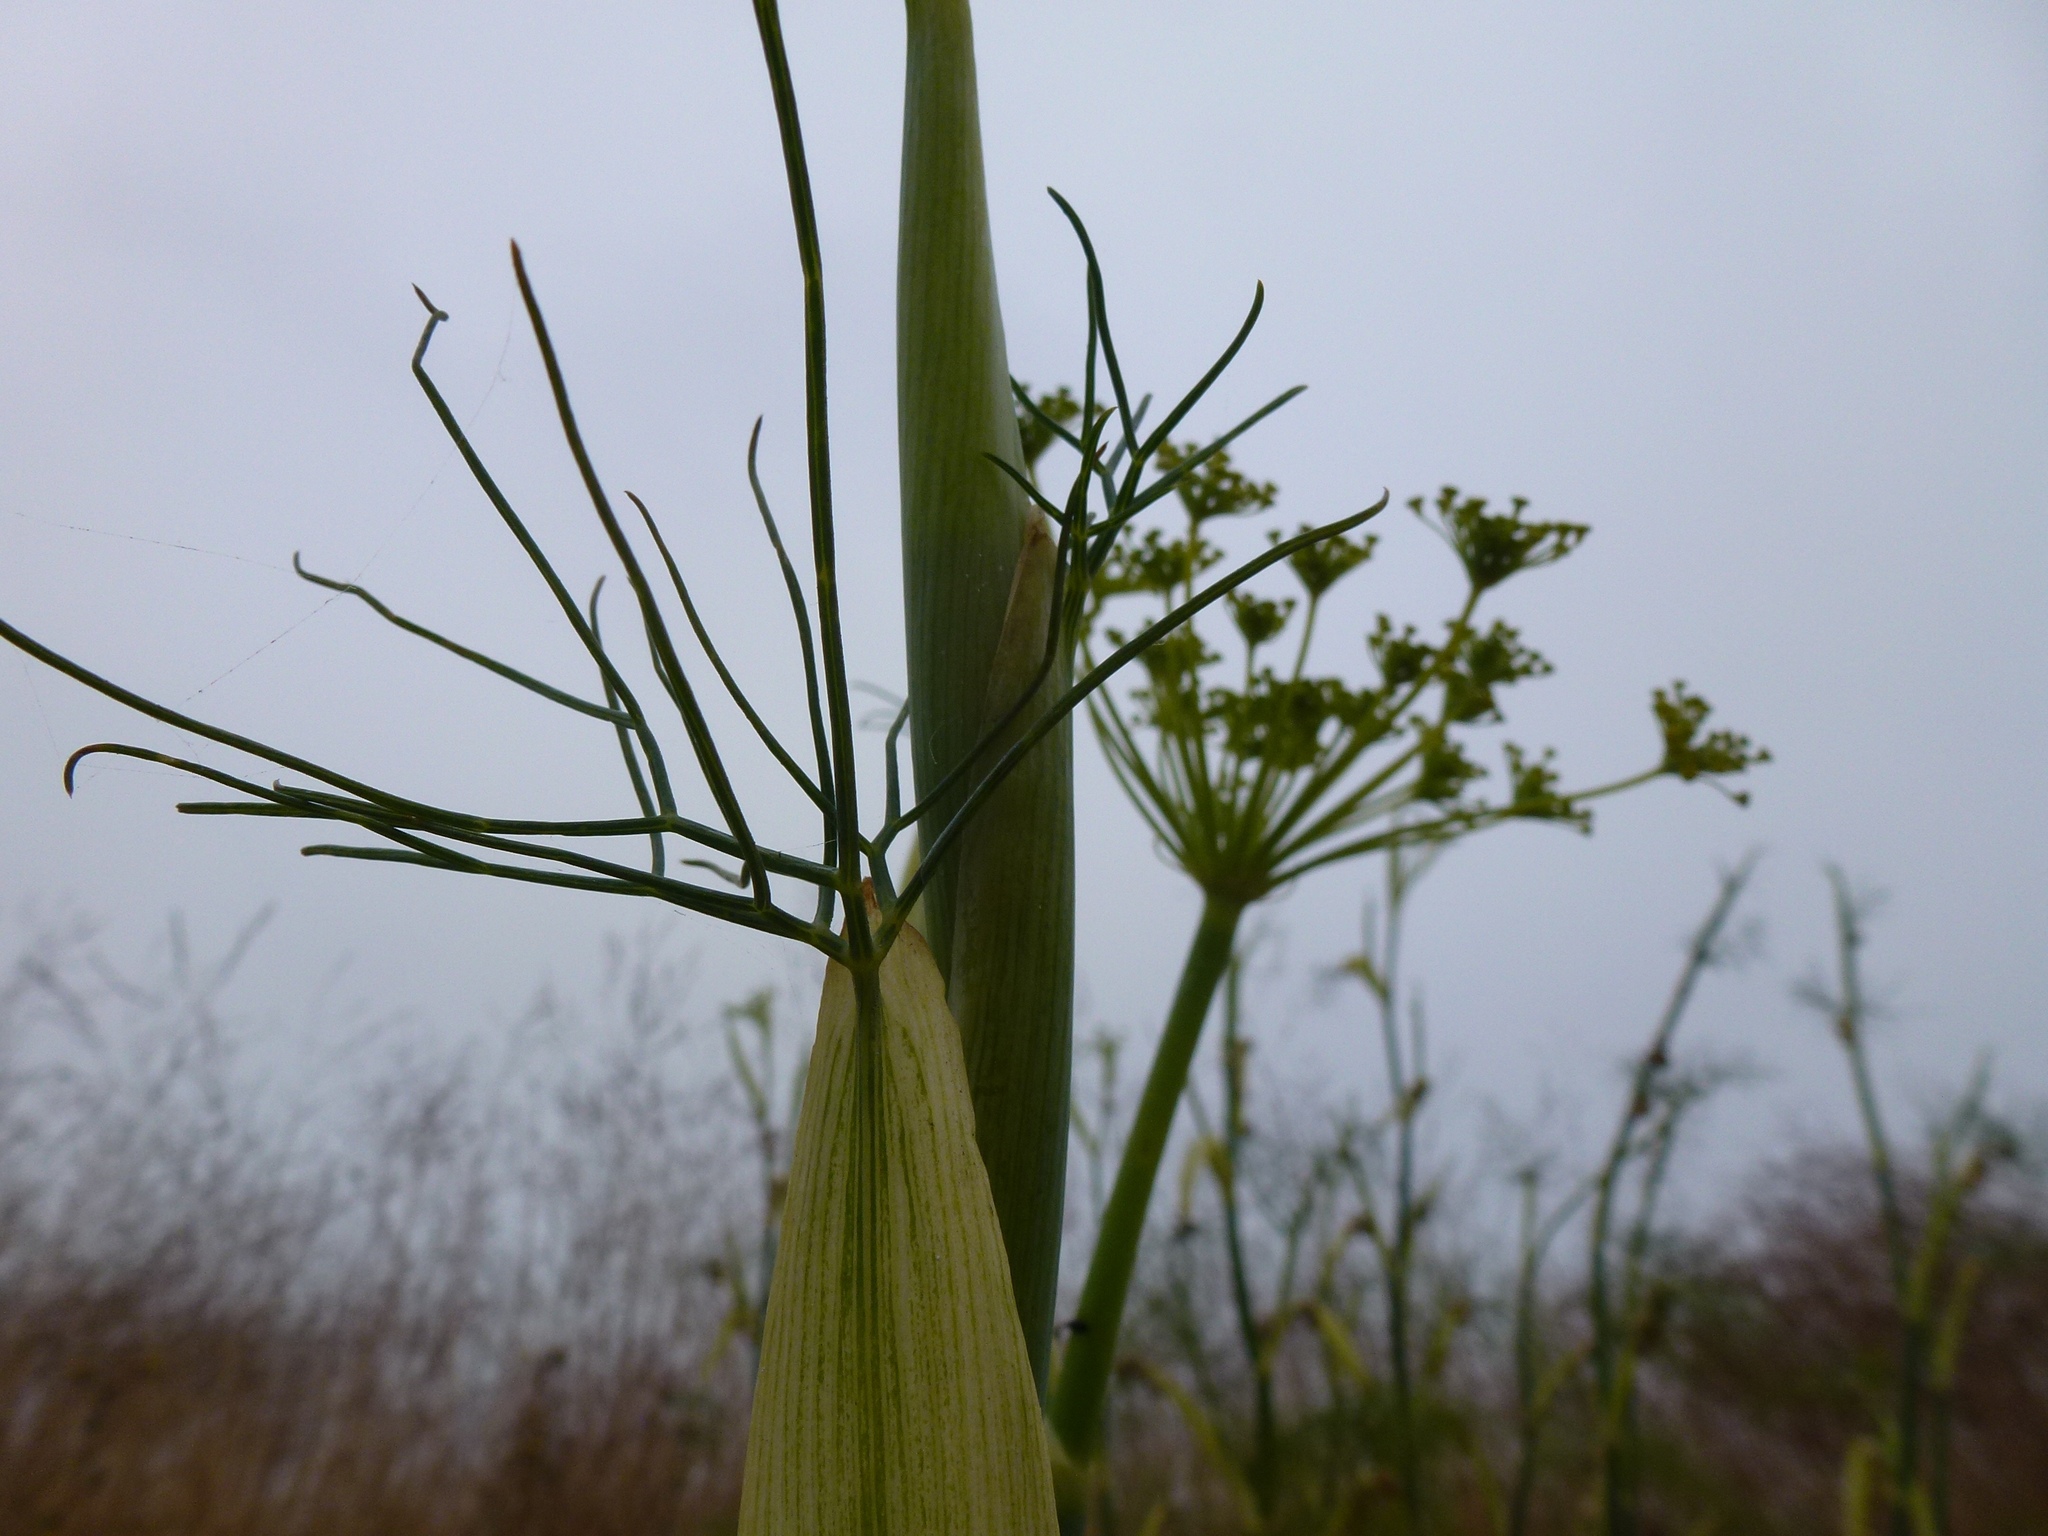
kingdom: Plantae
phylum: Tracheophyta
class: Magnoliopsida
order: Apiales
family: Apiaceae
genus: Foeniculum
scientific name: Foeniculum vulgare
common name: Fennel
